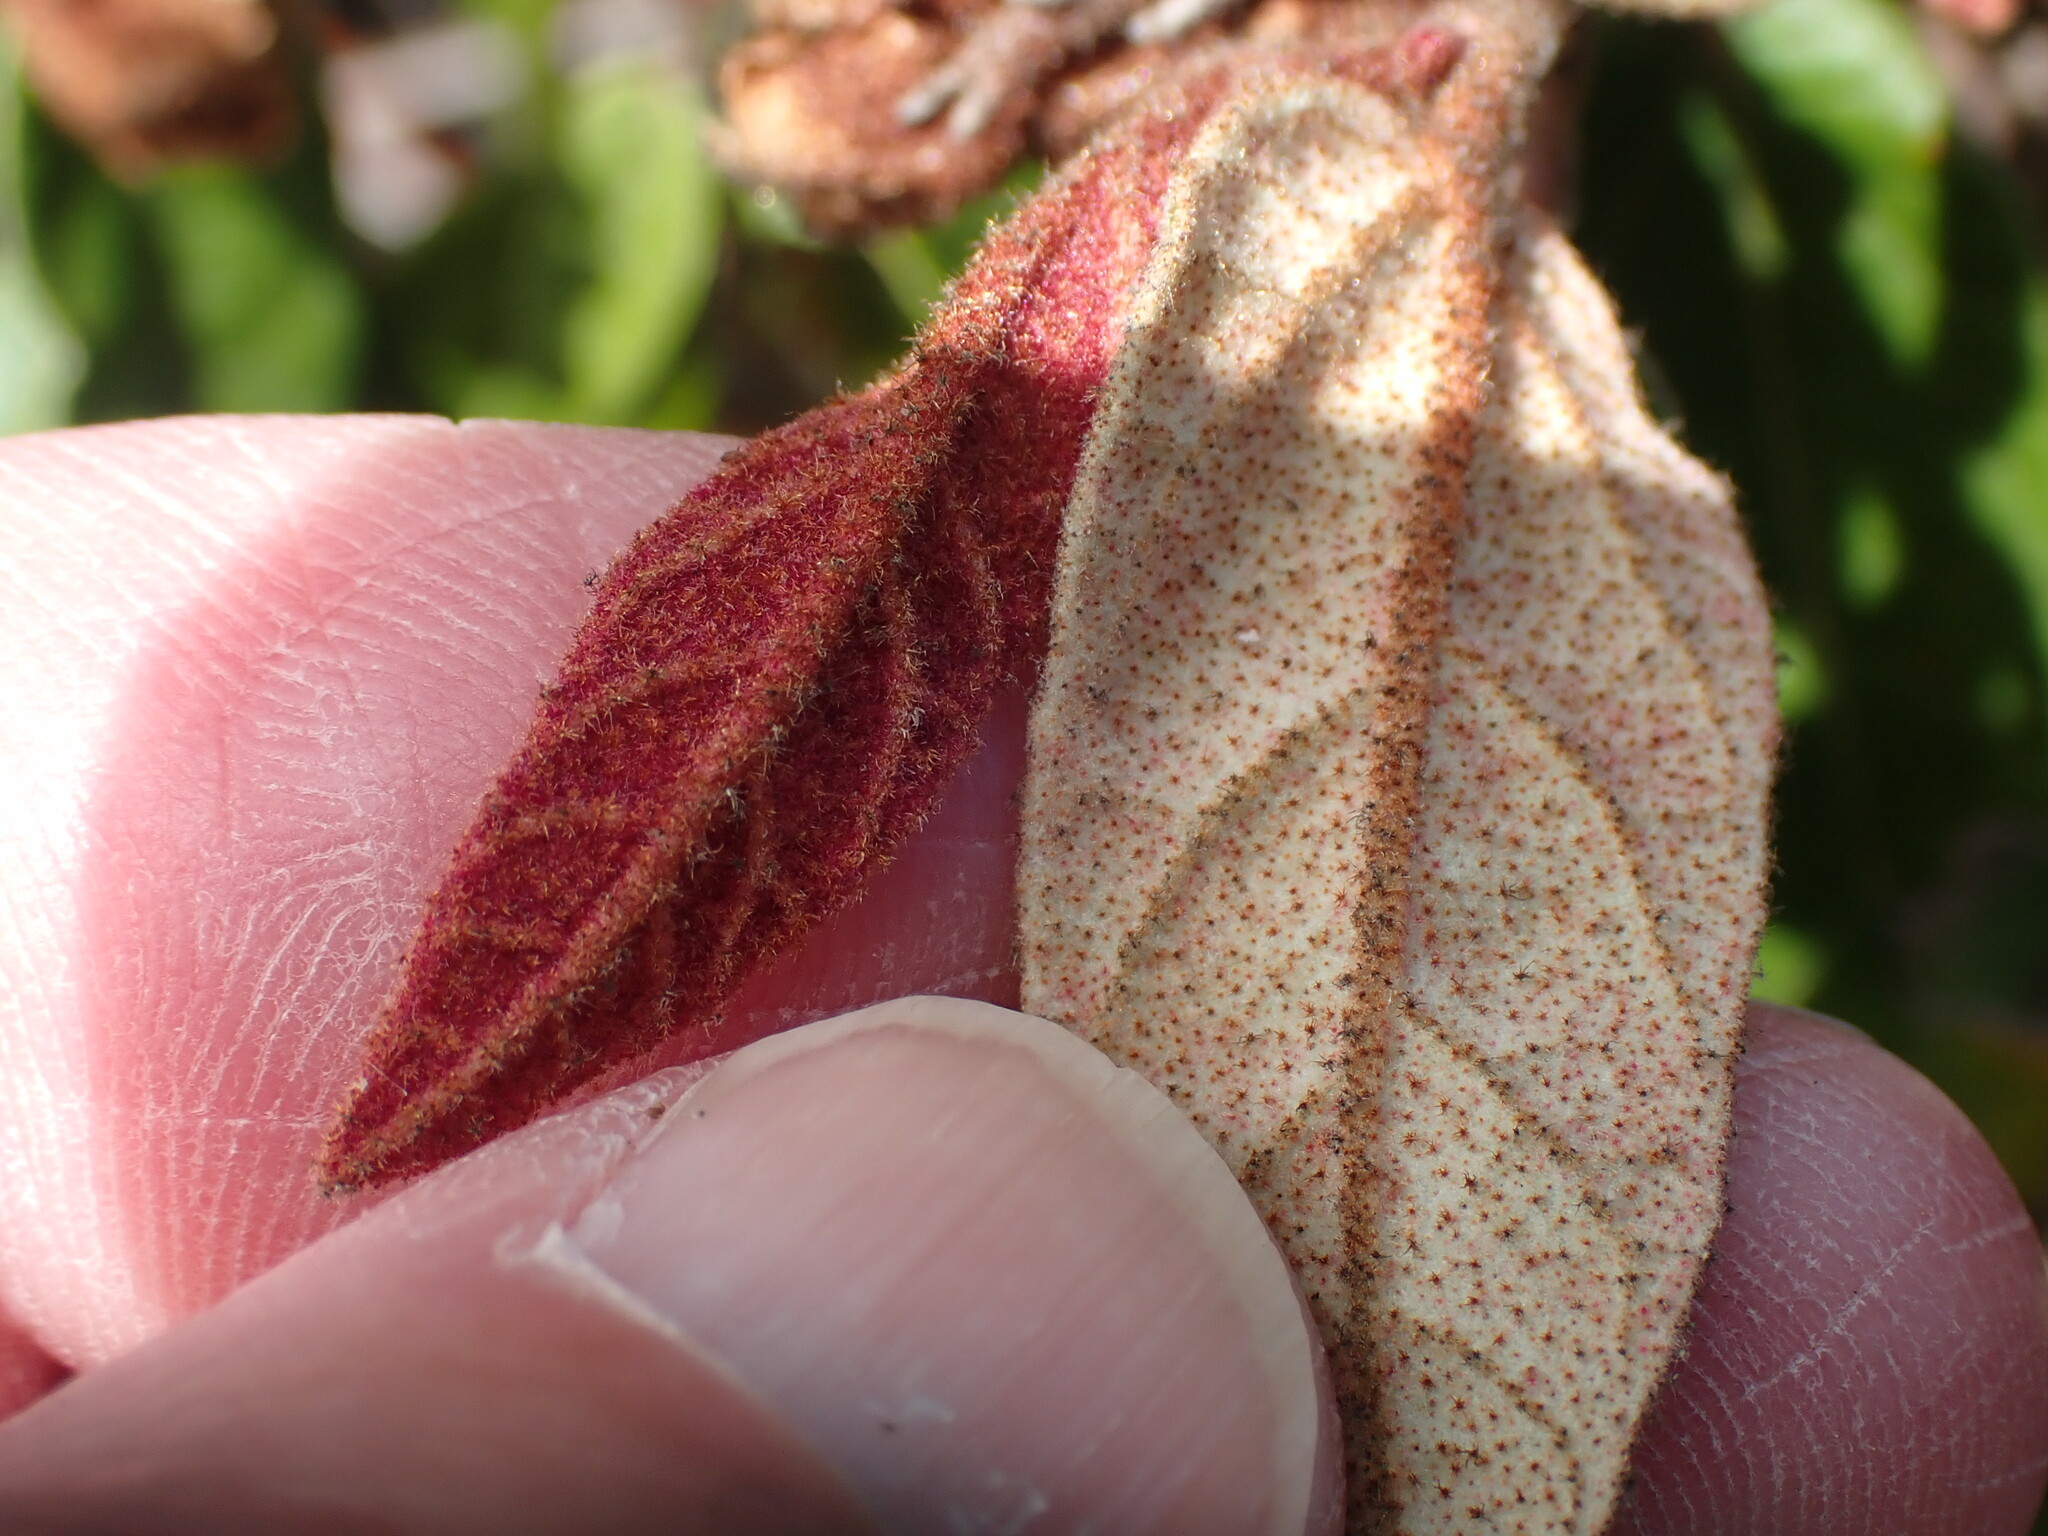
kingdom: Plantae
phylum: Tracheophyta
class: Magnoliopsida
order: Malvales
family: Malvaceae
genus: Lasiopetalum
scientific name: Lasiopetalum macrophyllum
